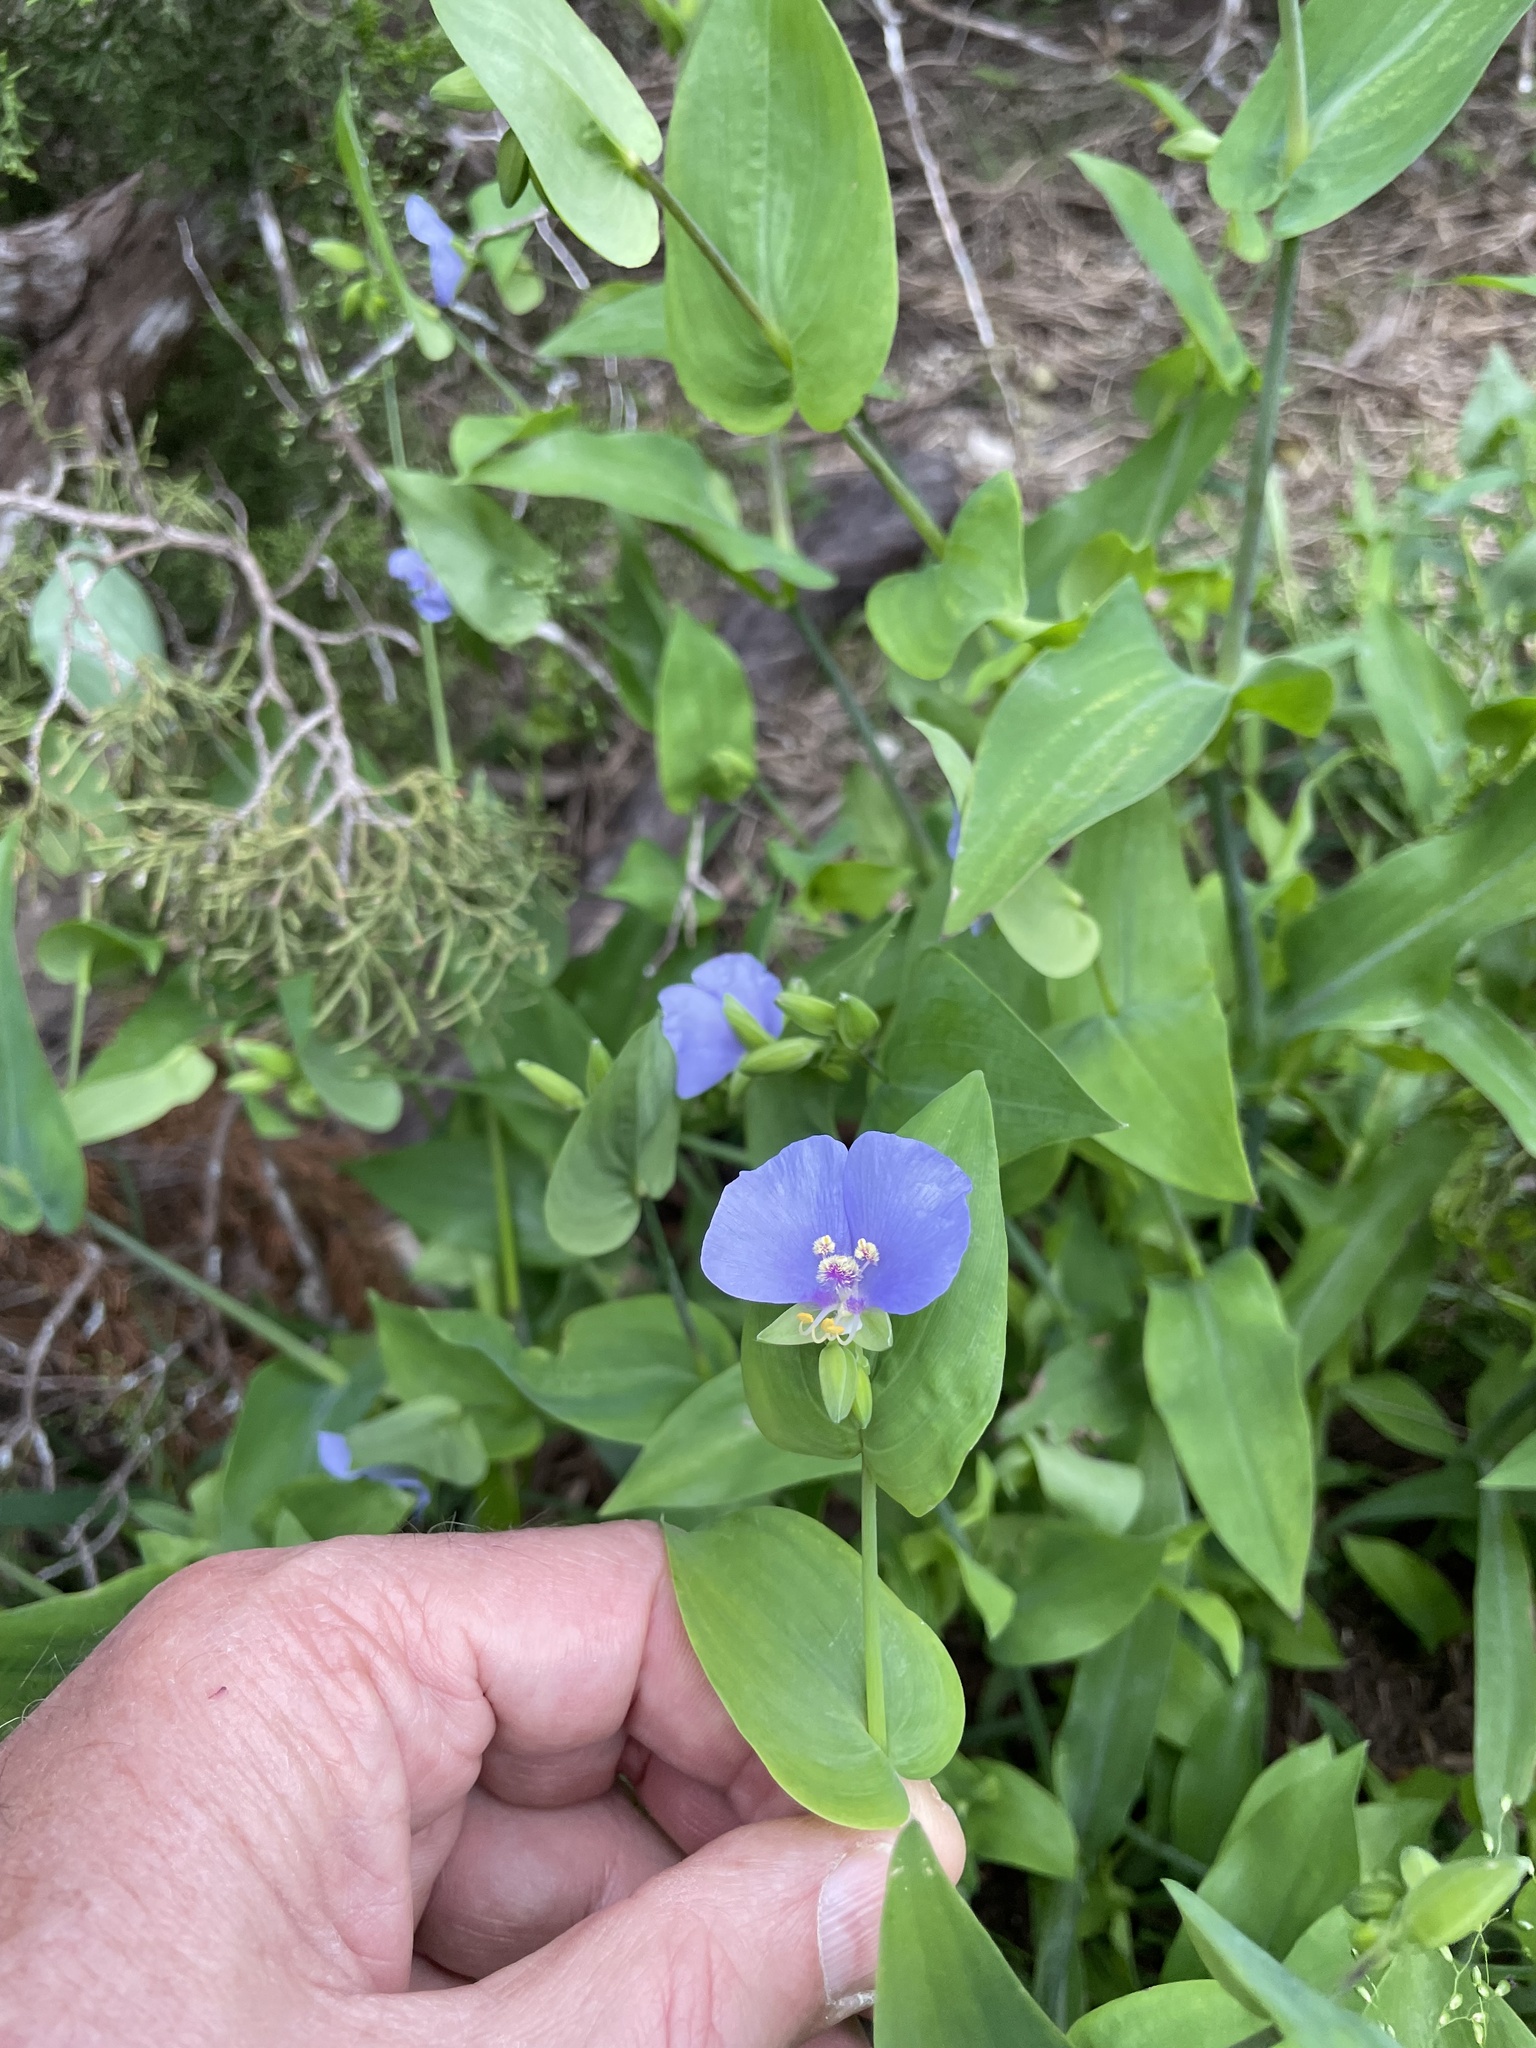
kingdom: Plantae
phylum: Tracheophyta
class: Liliopsida
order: Commelinales
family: Commelinaceae
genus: Tinantia
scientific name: Tinantia anomala
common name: False dayflower
